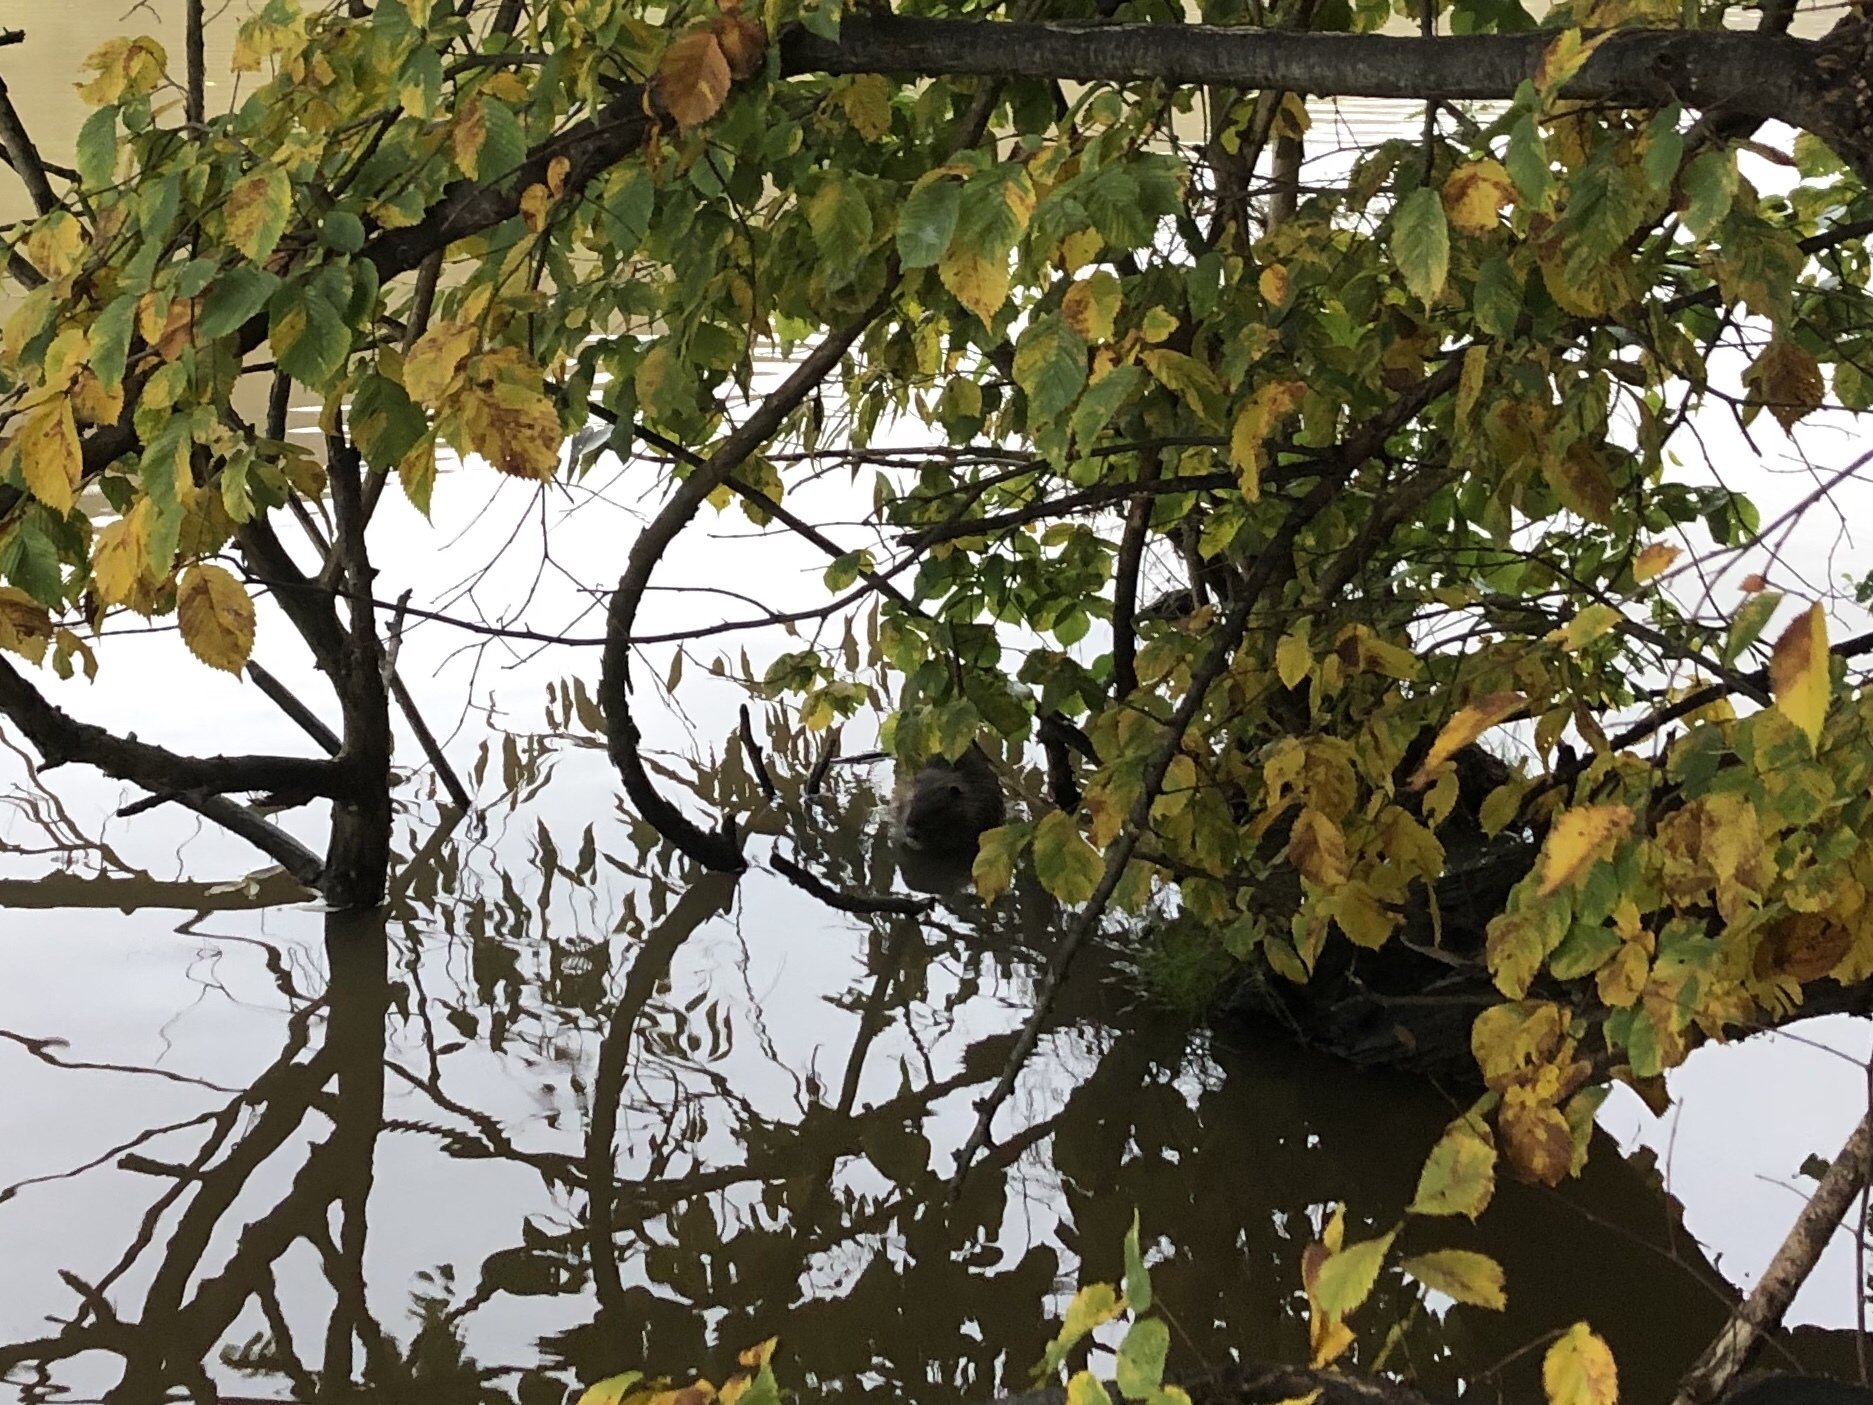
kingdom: Animalia
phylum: Chordata
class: Mammalia
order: Rodentia
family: Myocastoridae
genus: Myocastor
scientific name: Myocastor coypus
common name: Coypu
